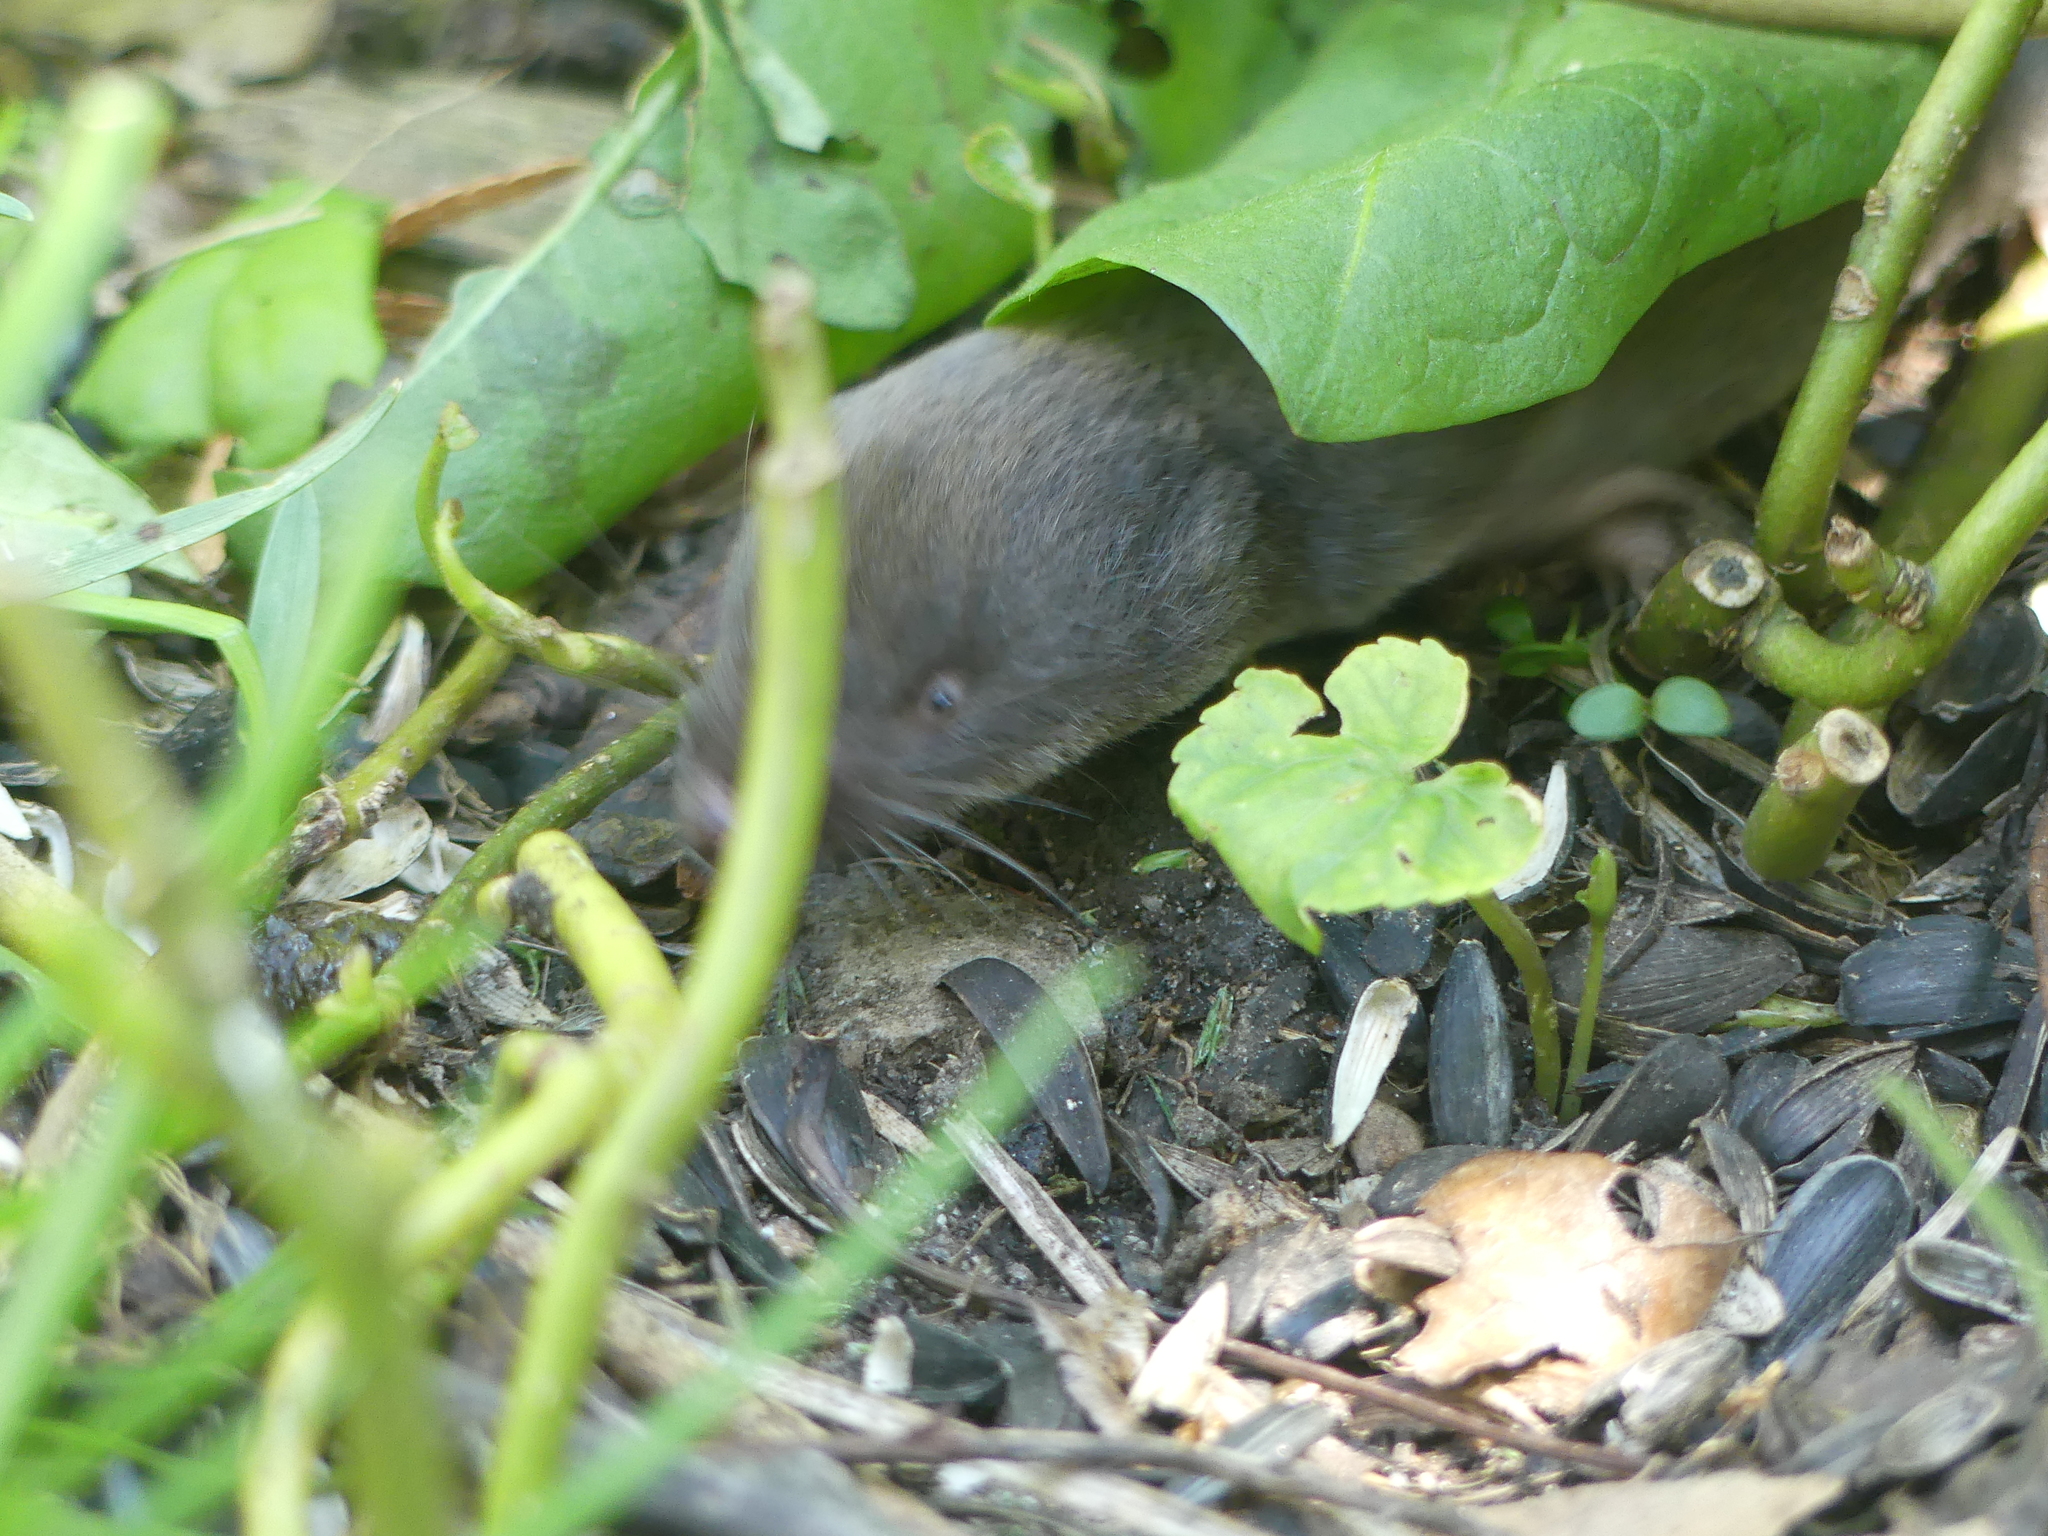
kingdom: Animalia
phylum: Chordata
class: Mammalia
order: Soricomorpha
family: Soricidae
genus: Blarina
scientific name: Blarina brevicauda
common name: Northern short-tailed shrew
